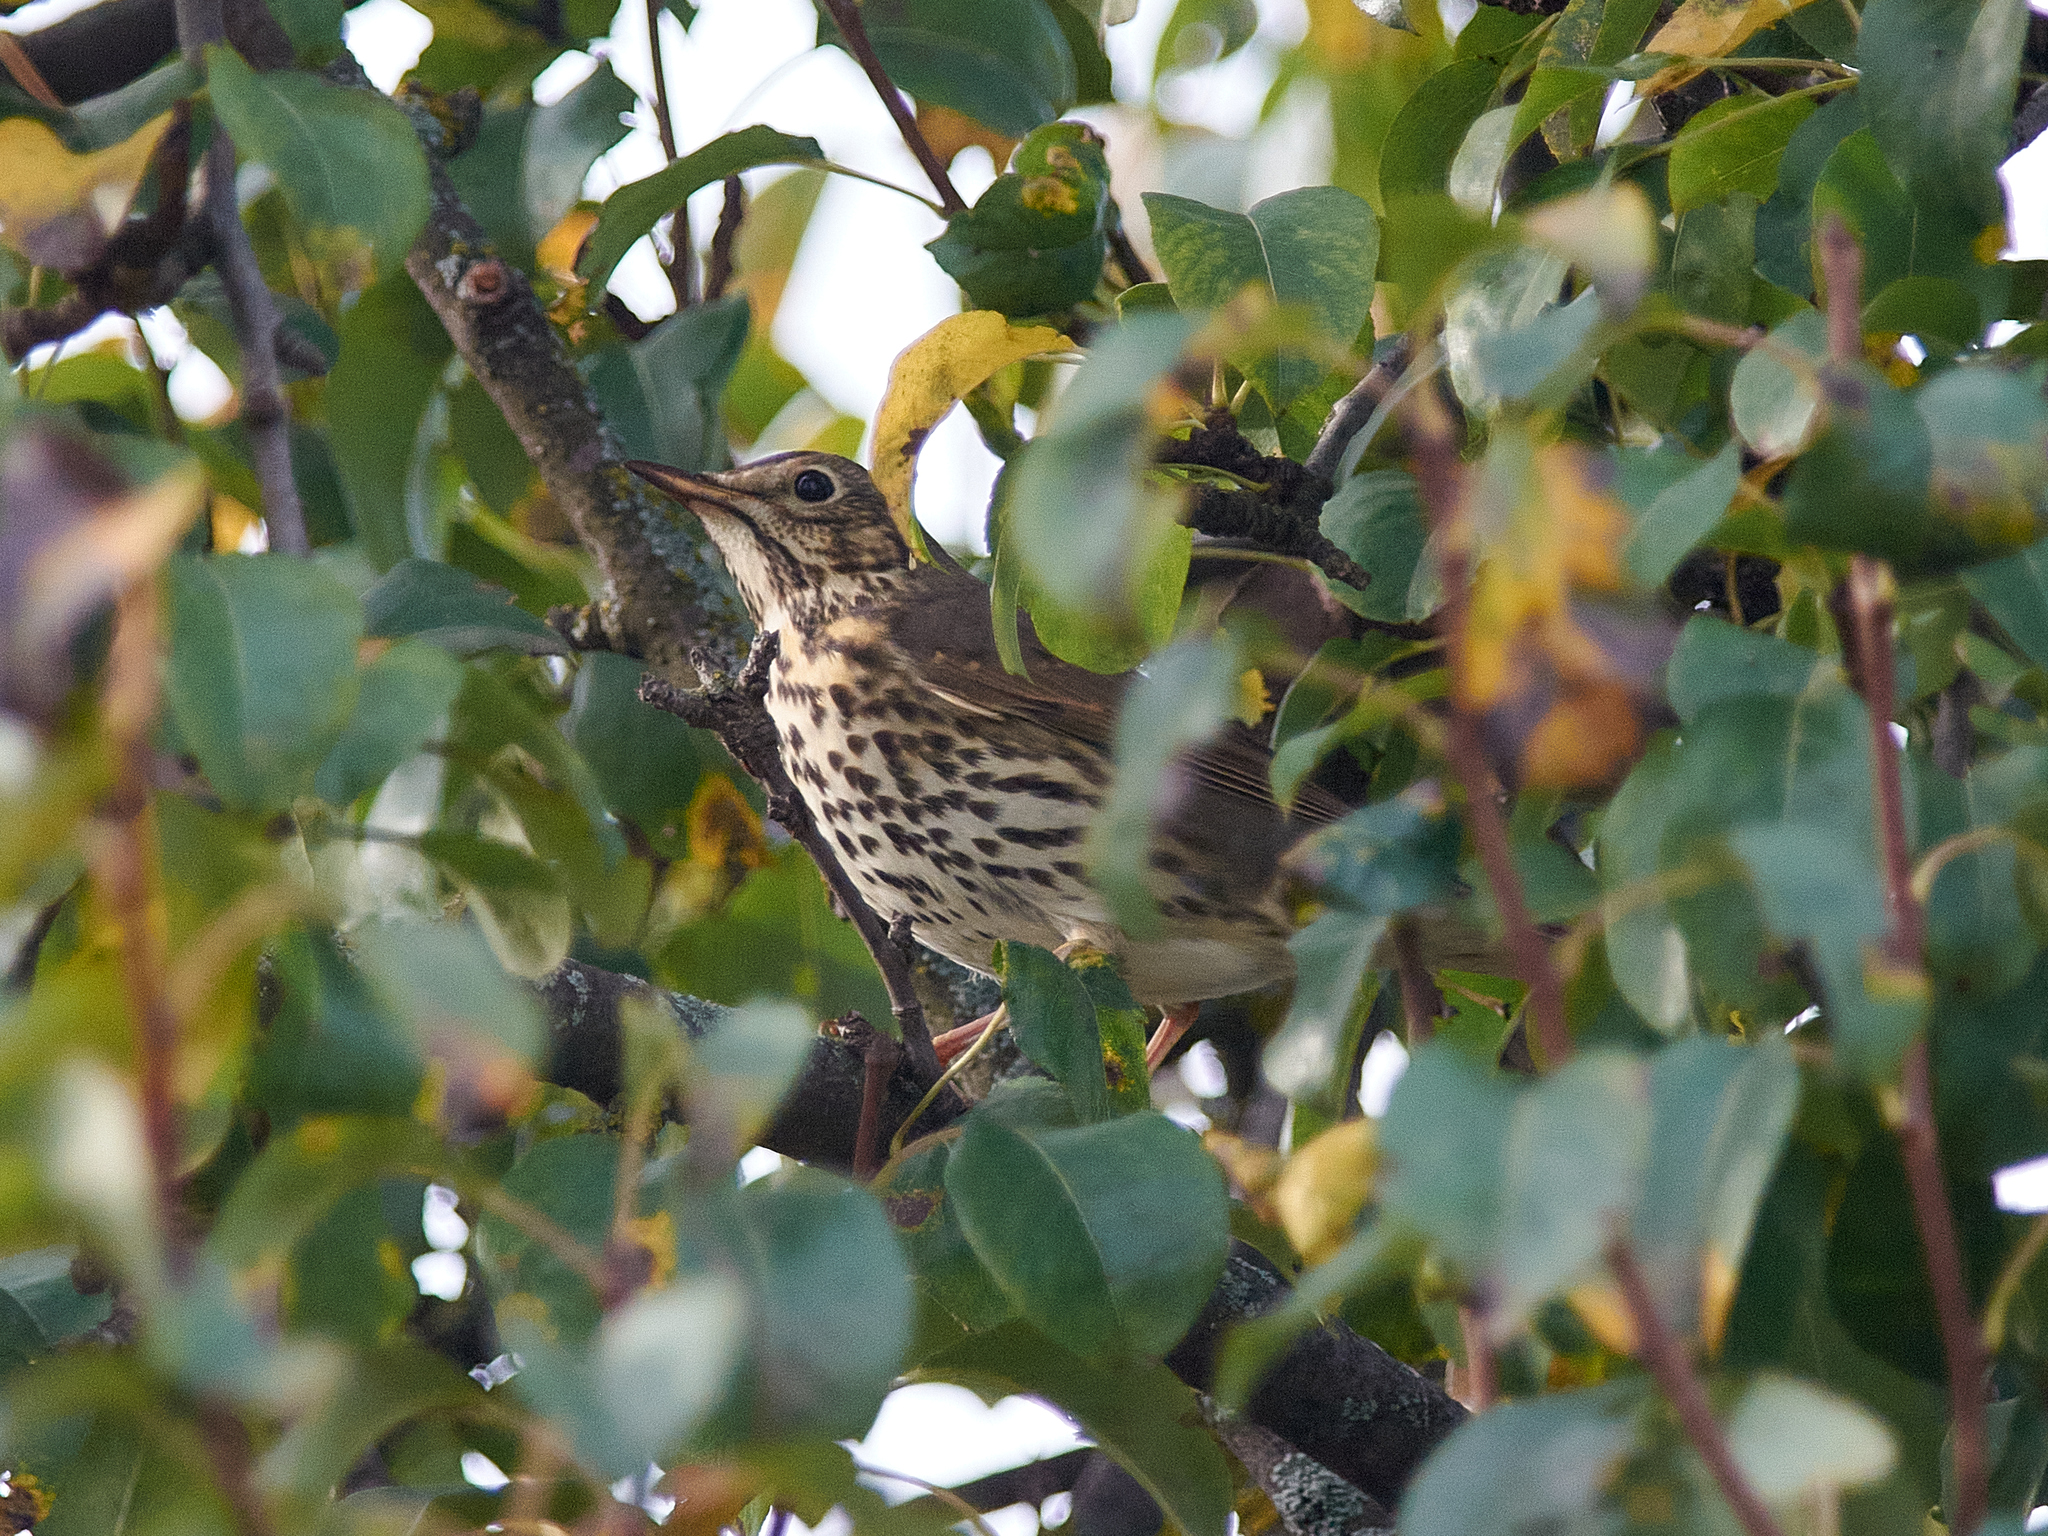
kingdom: Animalia
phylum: Chordata
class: Aves
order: Passeriformes
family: Turdidae
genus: Turdus
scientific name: Turdus philomelos
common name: Song thrush
